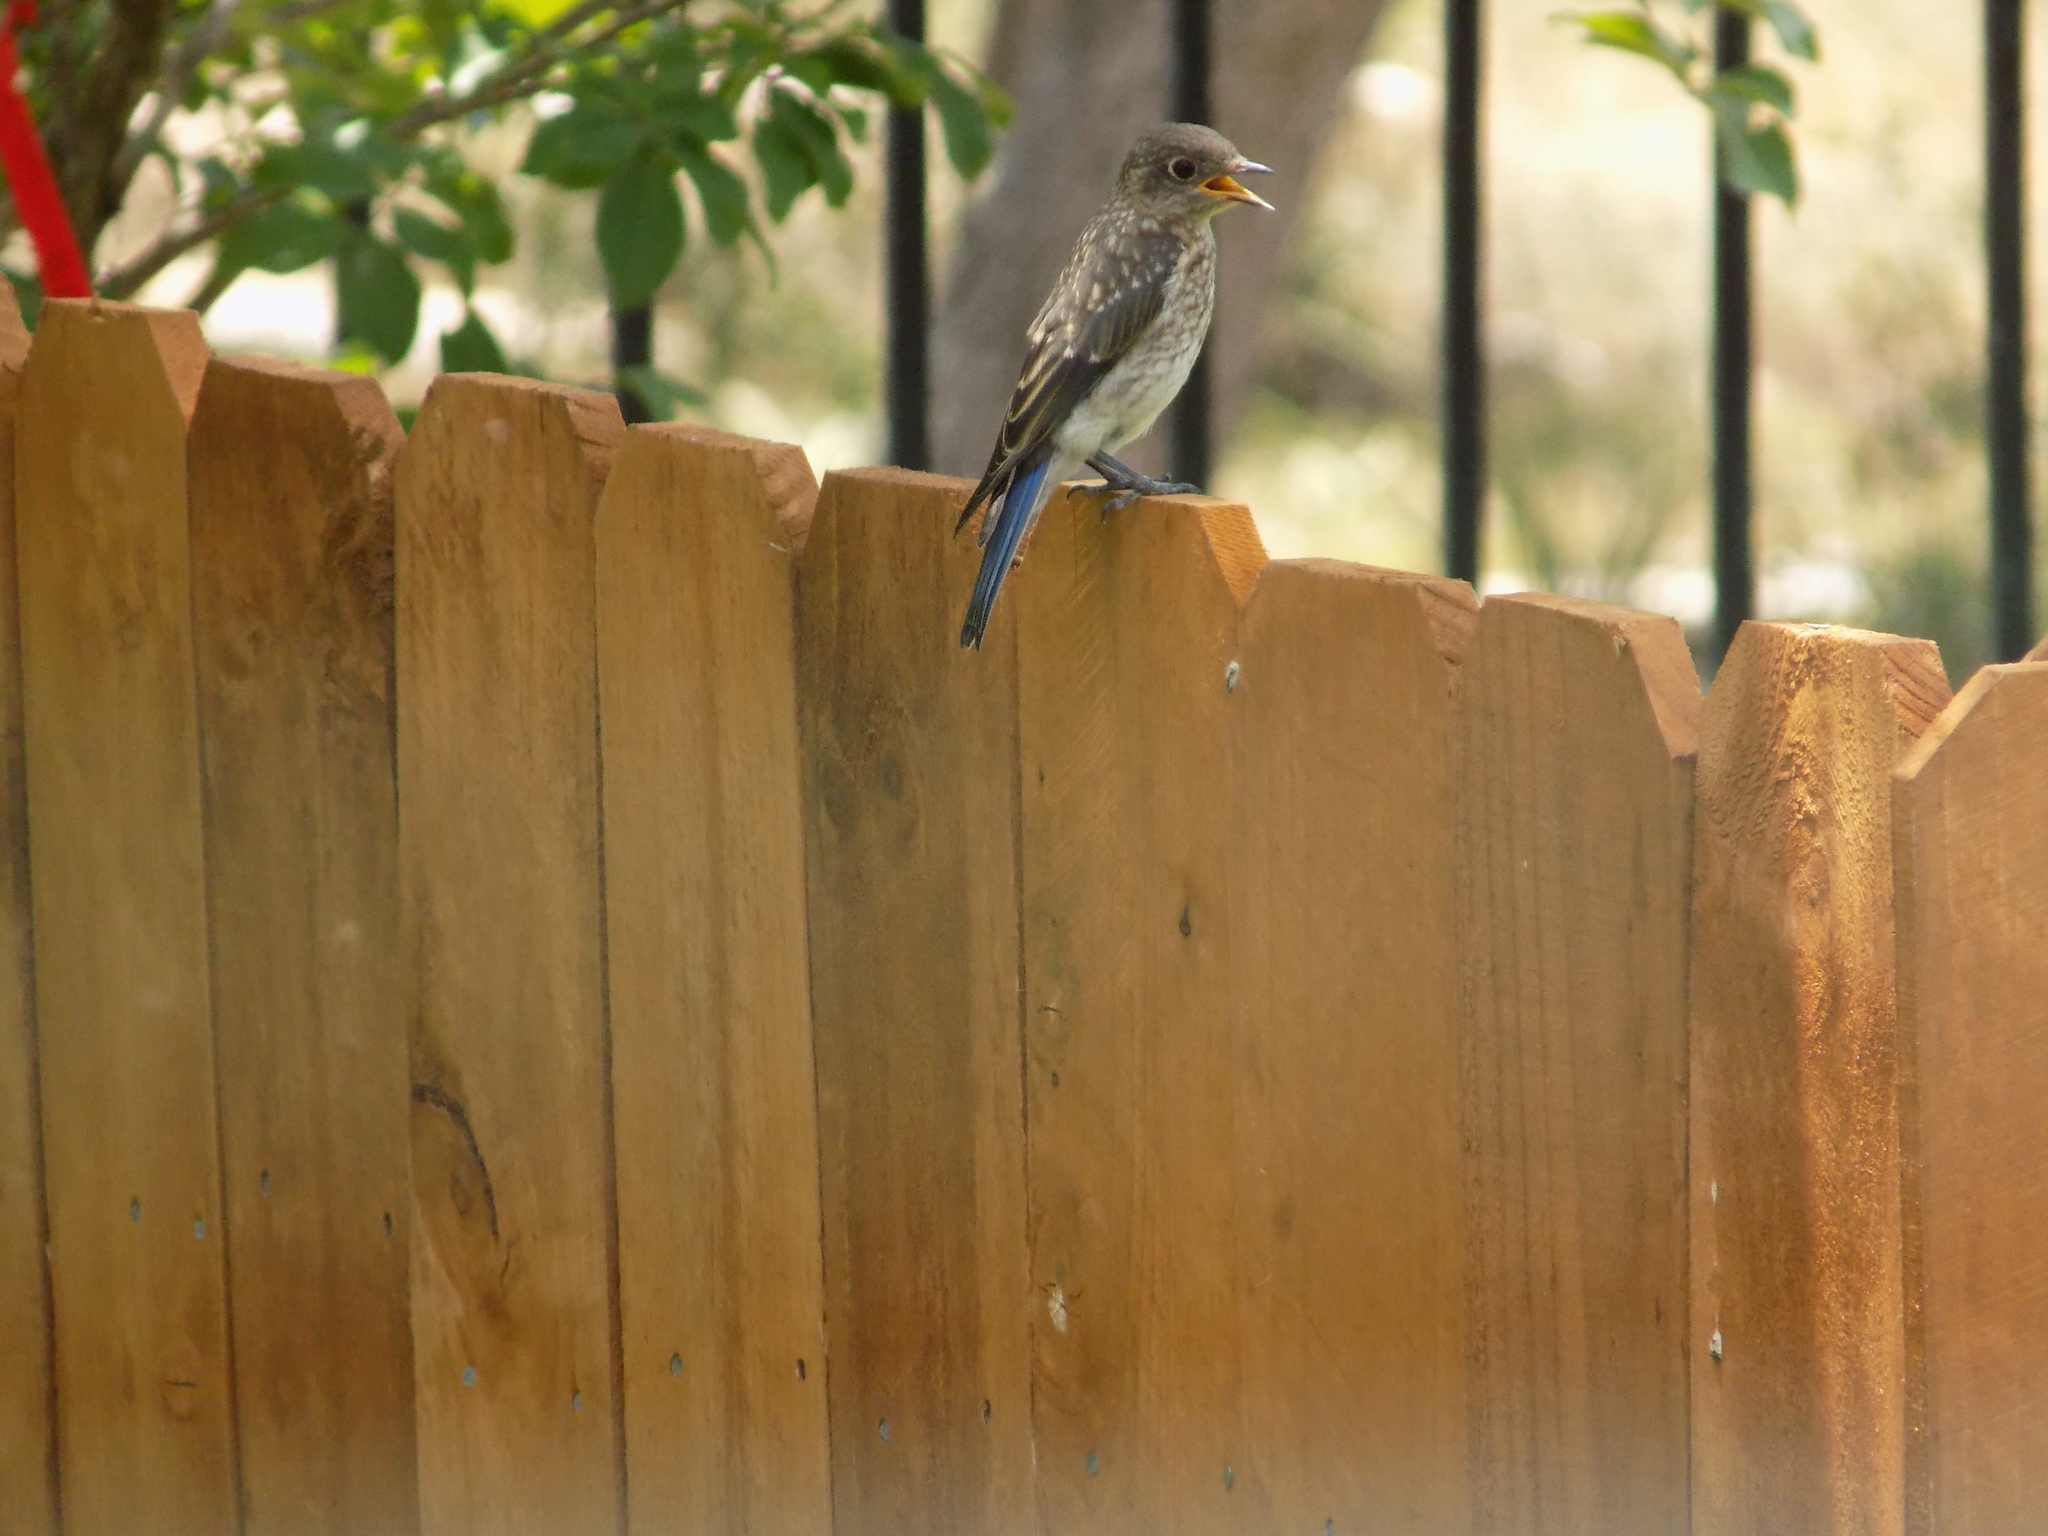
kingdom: Animalia
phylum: Chordata
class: Aves
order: Passeriformes
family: Turdidae
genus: Sialia
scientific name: Sialia sialis
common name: Eastern bluebird
